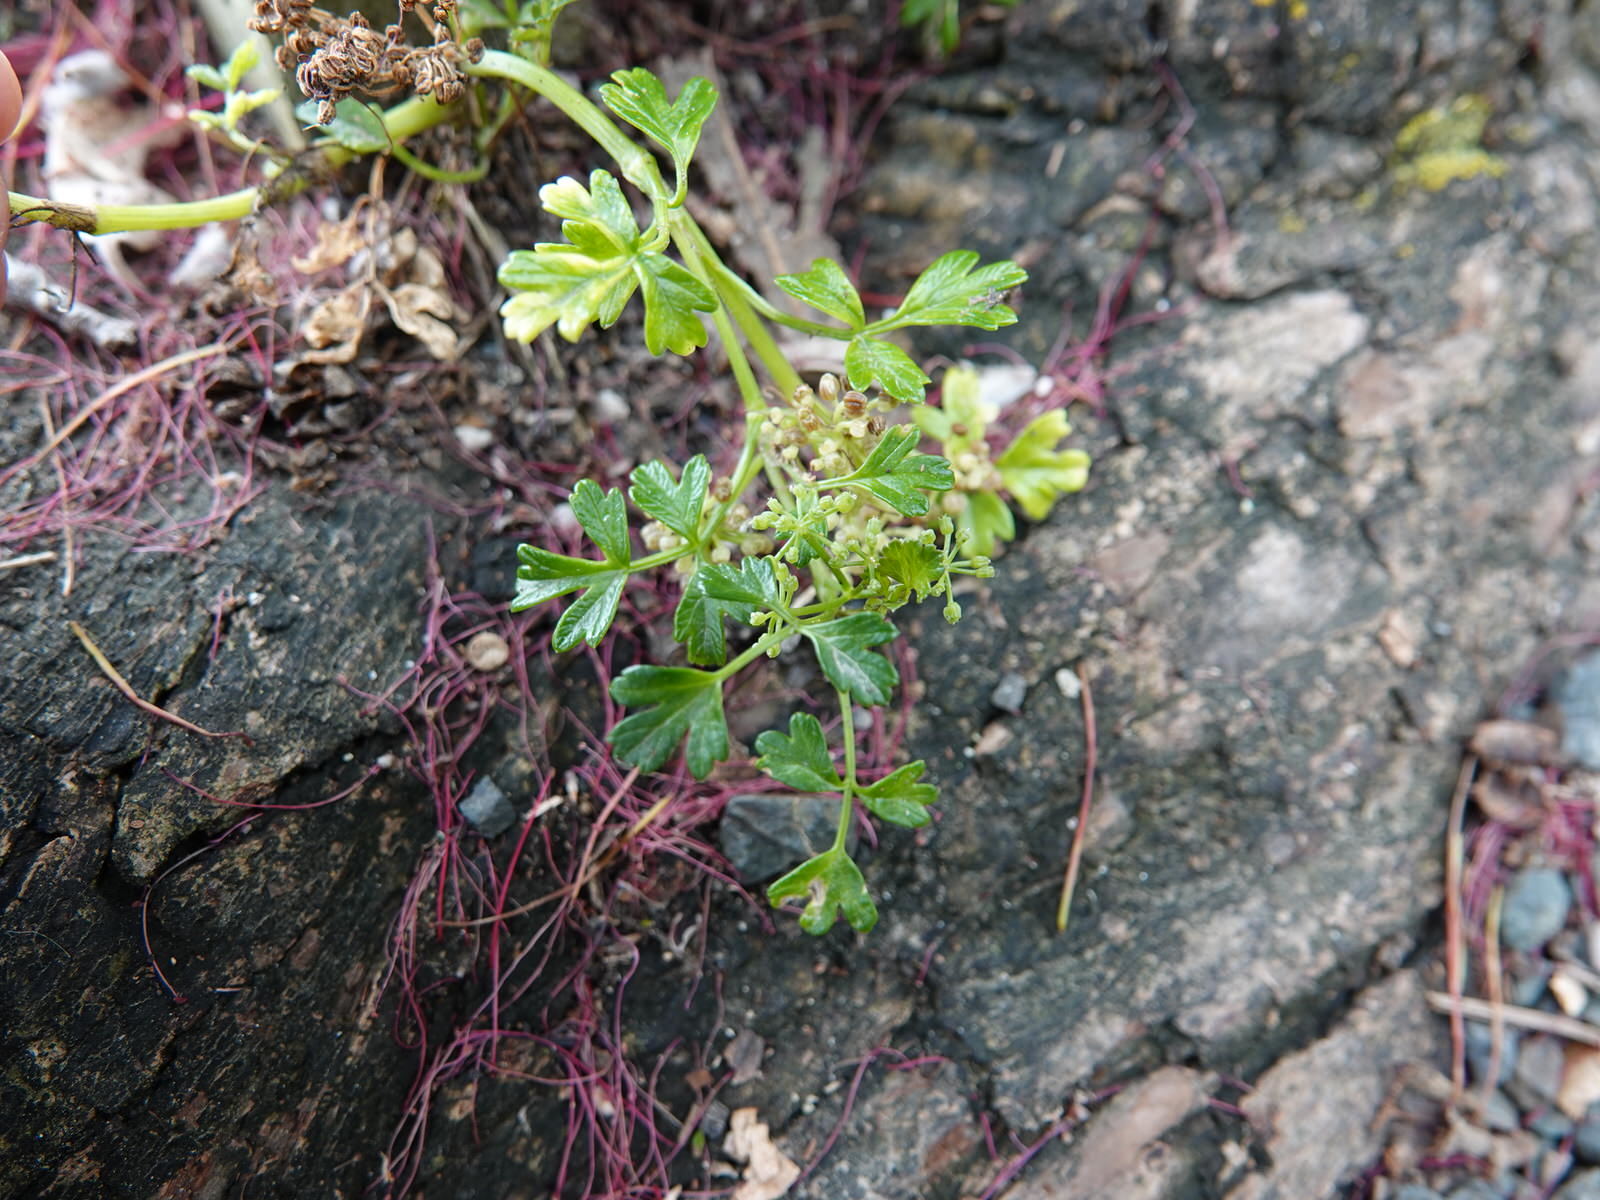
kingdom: Plantae
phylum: Tracheophyta
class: Magnoliopsida
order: Apiales
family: Apiaceae
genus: Apium
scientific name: Apium prostratum
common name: Prostrate marshwort
